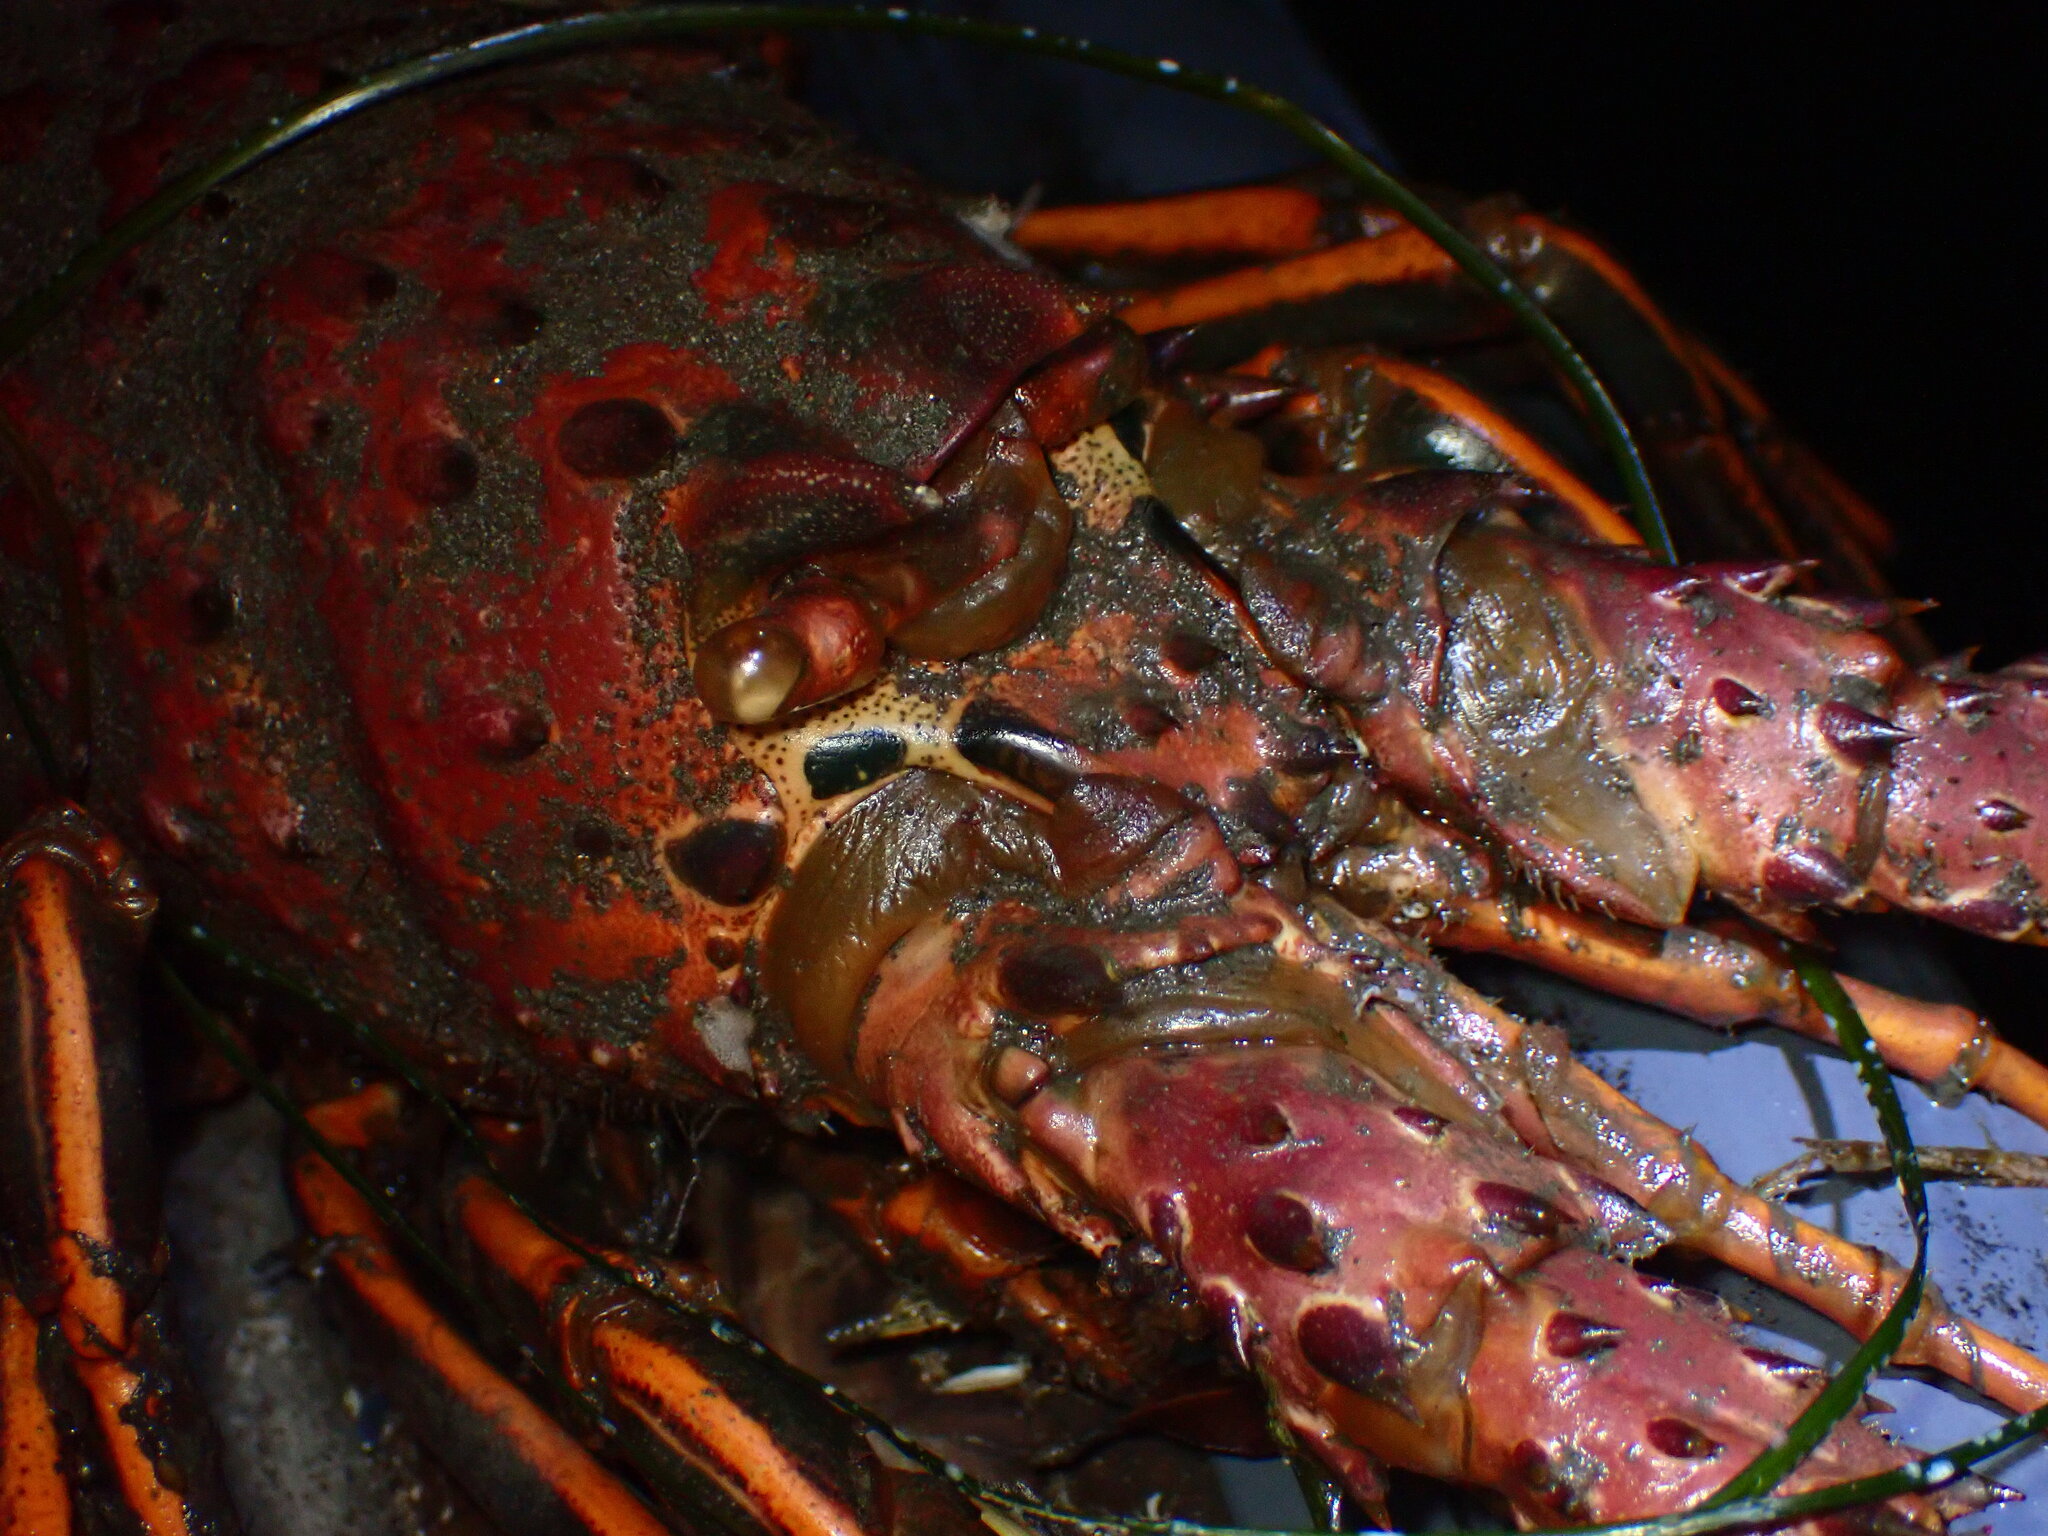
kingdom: Animalia
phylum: Arthropoda
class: Malacostraca
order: Decapoda
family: Palinuridae
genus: Panulirus
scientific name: Panulirus interruptus
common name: California spiny lobster
